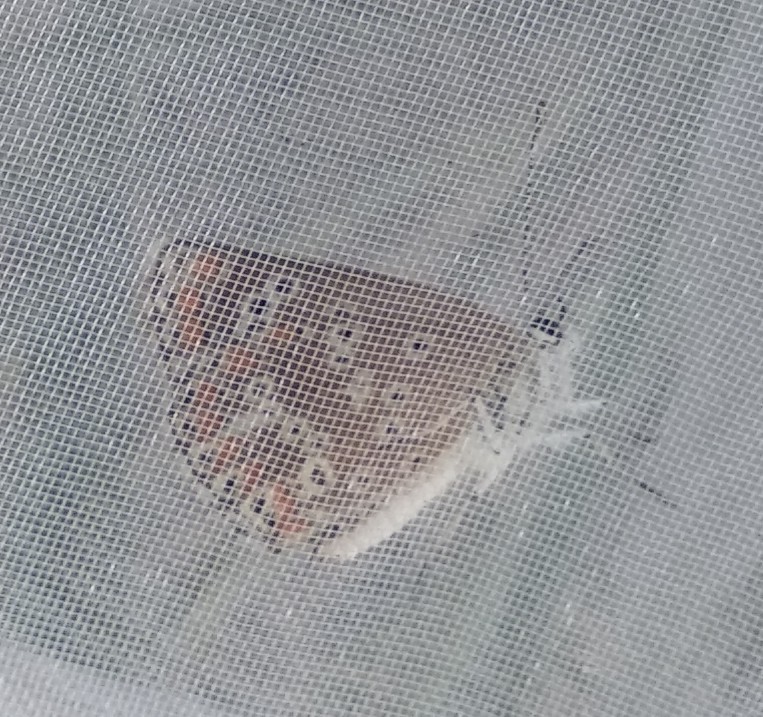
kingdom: Animalia
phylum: Arthropoda
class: Insecta
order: Lepidoptera
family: Lycaenidae
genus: Aricia
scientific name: Aricia cramera
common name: Eschscholtz´s brown  argus
